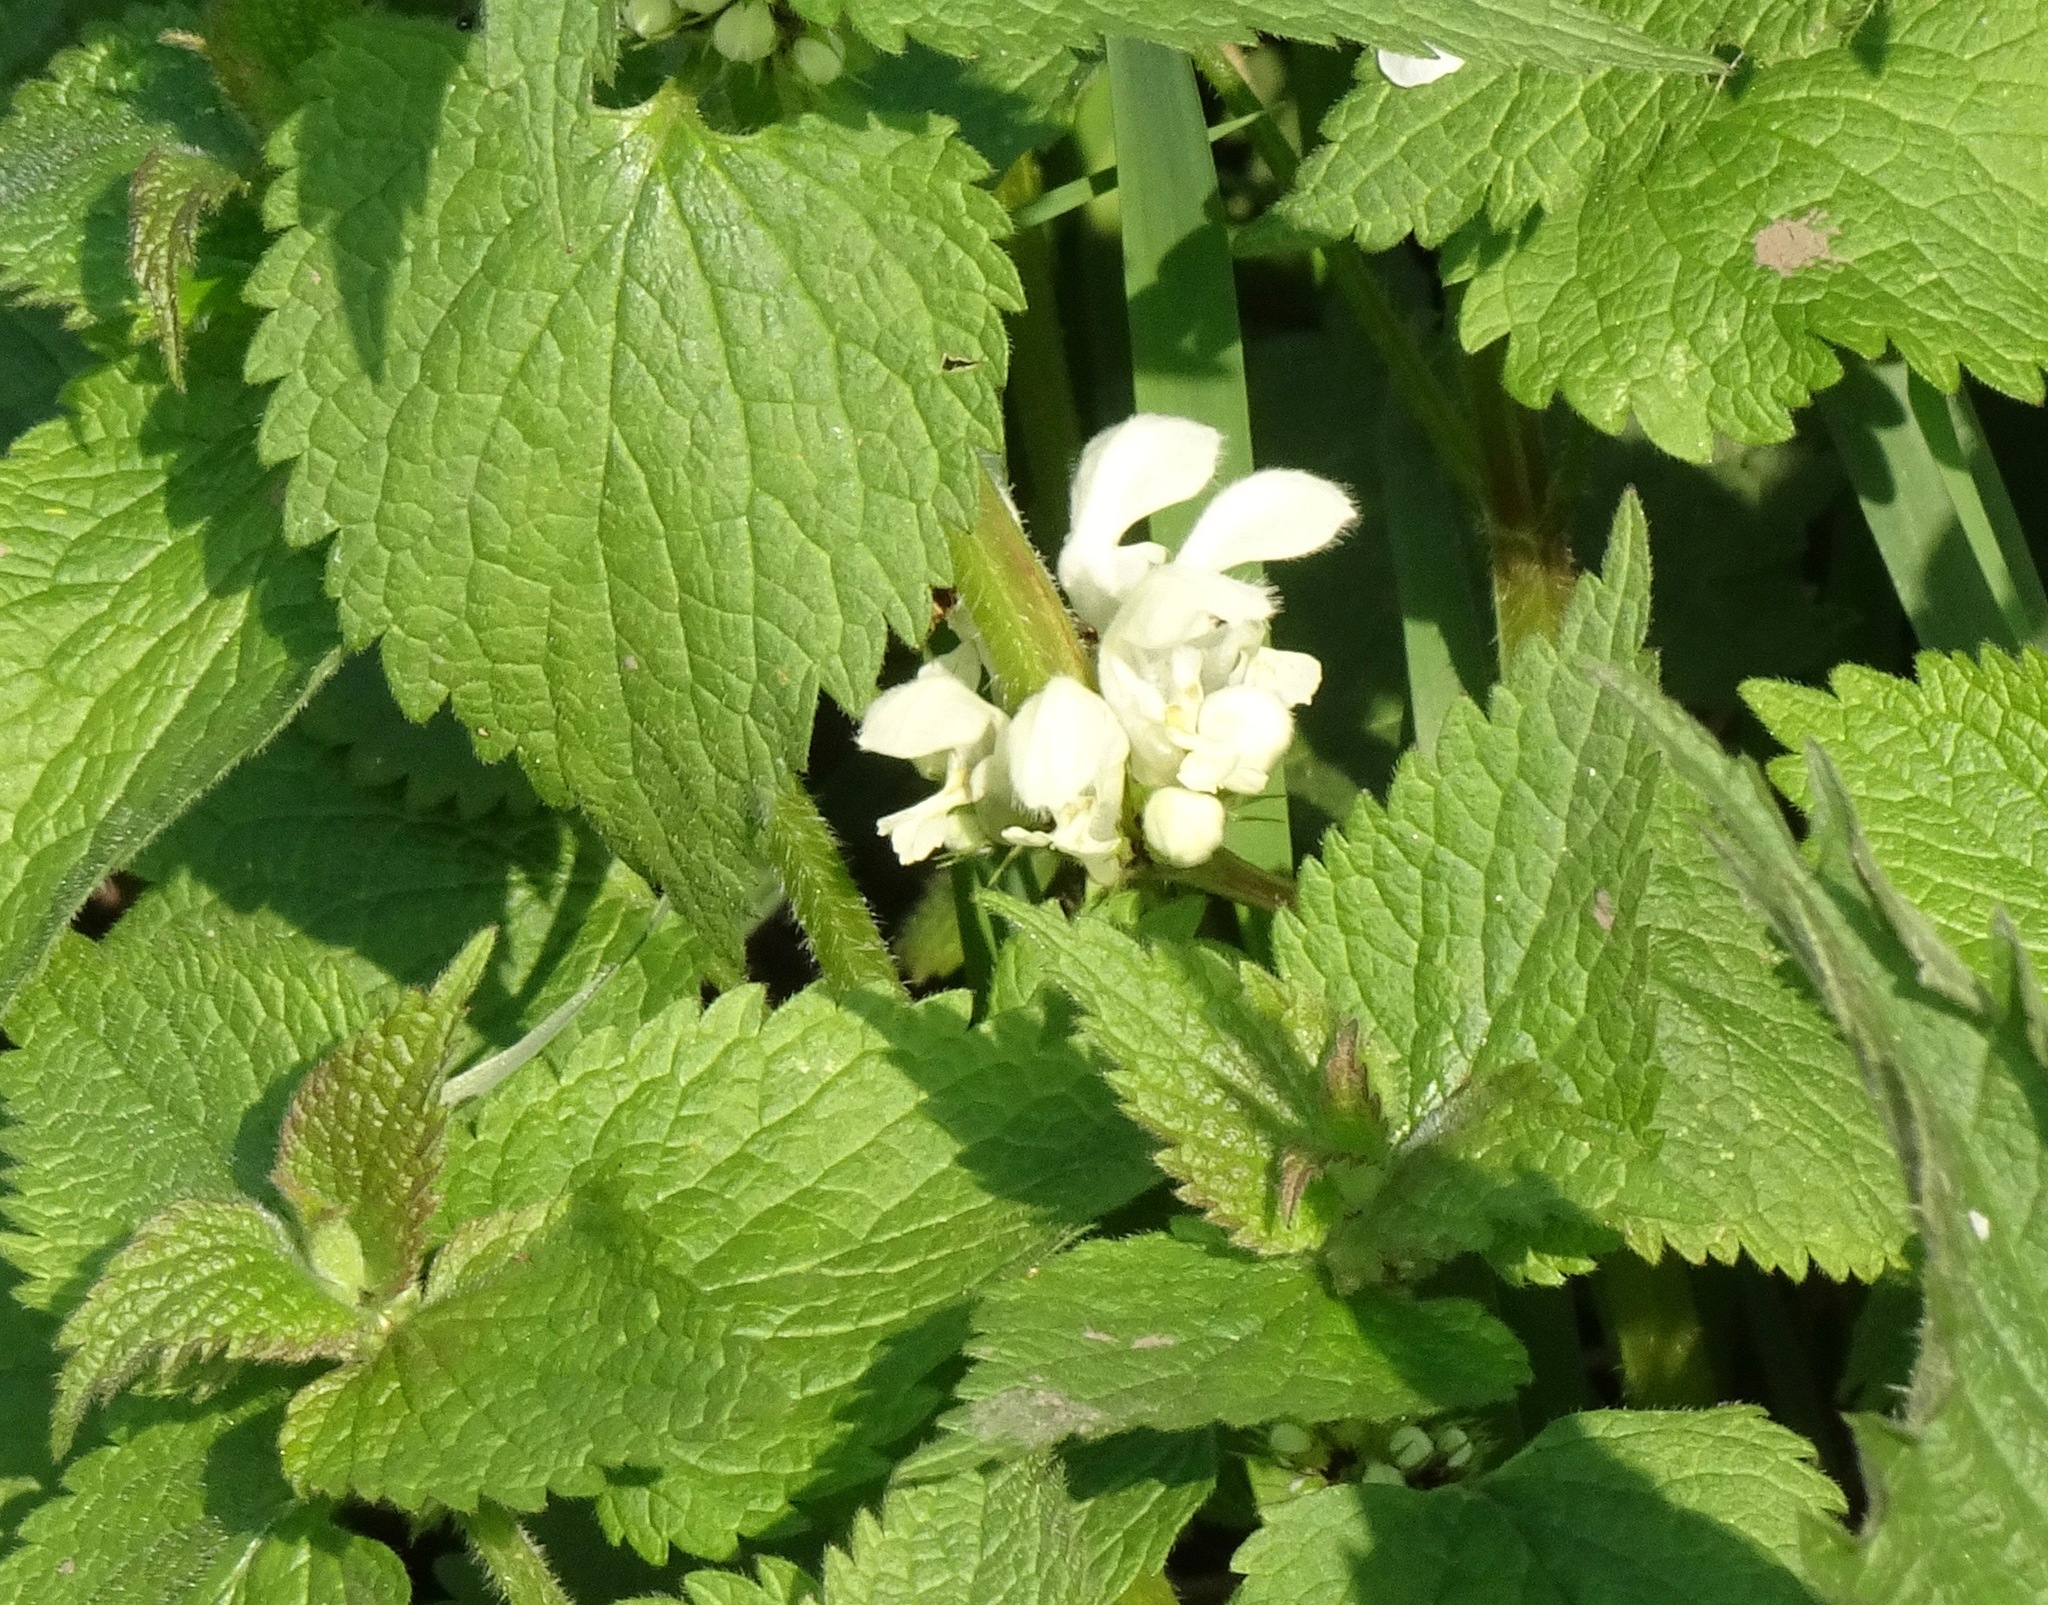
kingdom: Plantae
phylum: Tracheophyta
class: Magnoliopsida
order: Lamiales
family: Lamiaceae
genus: Lamium
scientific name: Lamium album
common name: White dead-nettle
